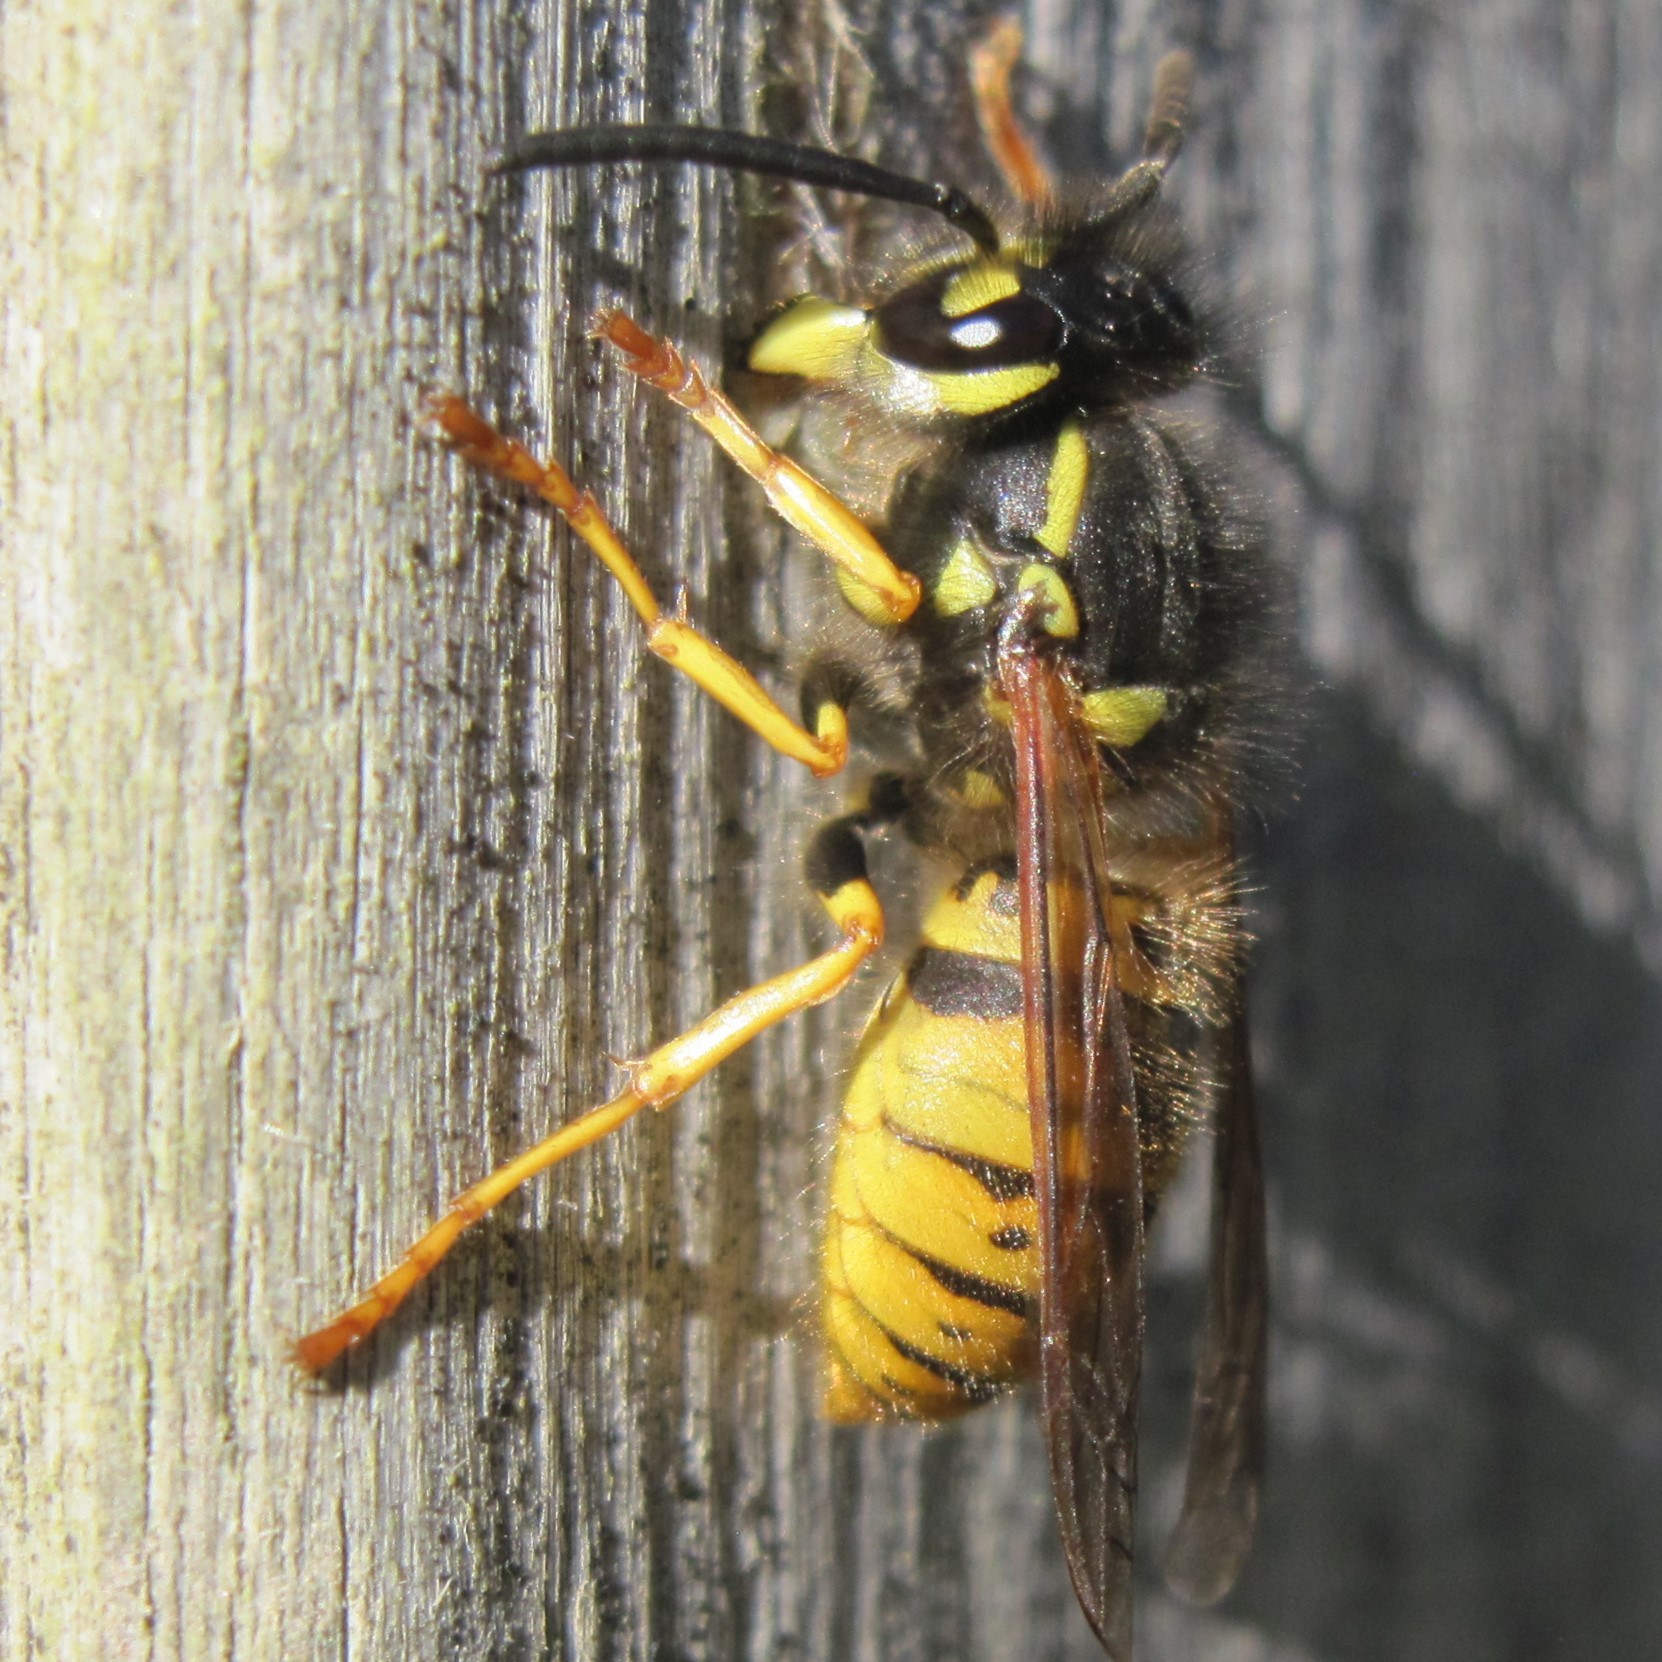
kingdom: Animalia
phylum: Arthropoda
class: Insecta
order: Hymenoptera
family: Vespidae
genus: Vespula
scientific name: Vespula germanica
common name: German wasp
